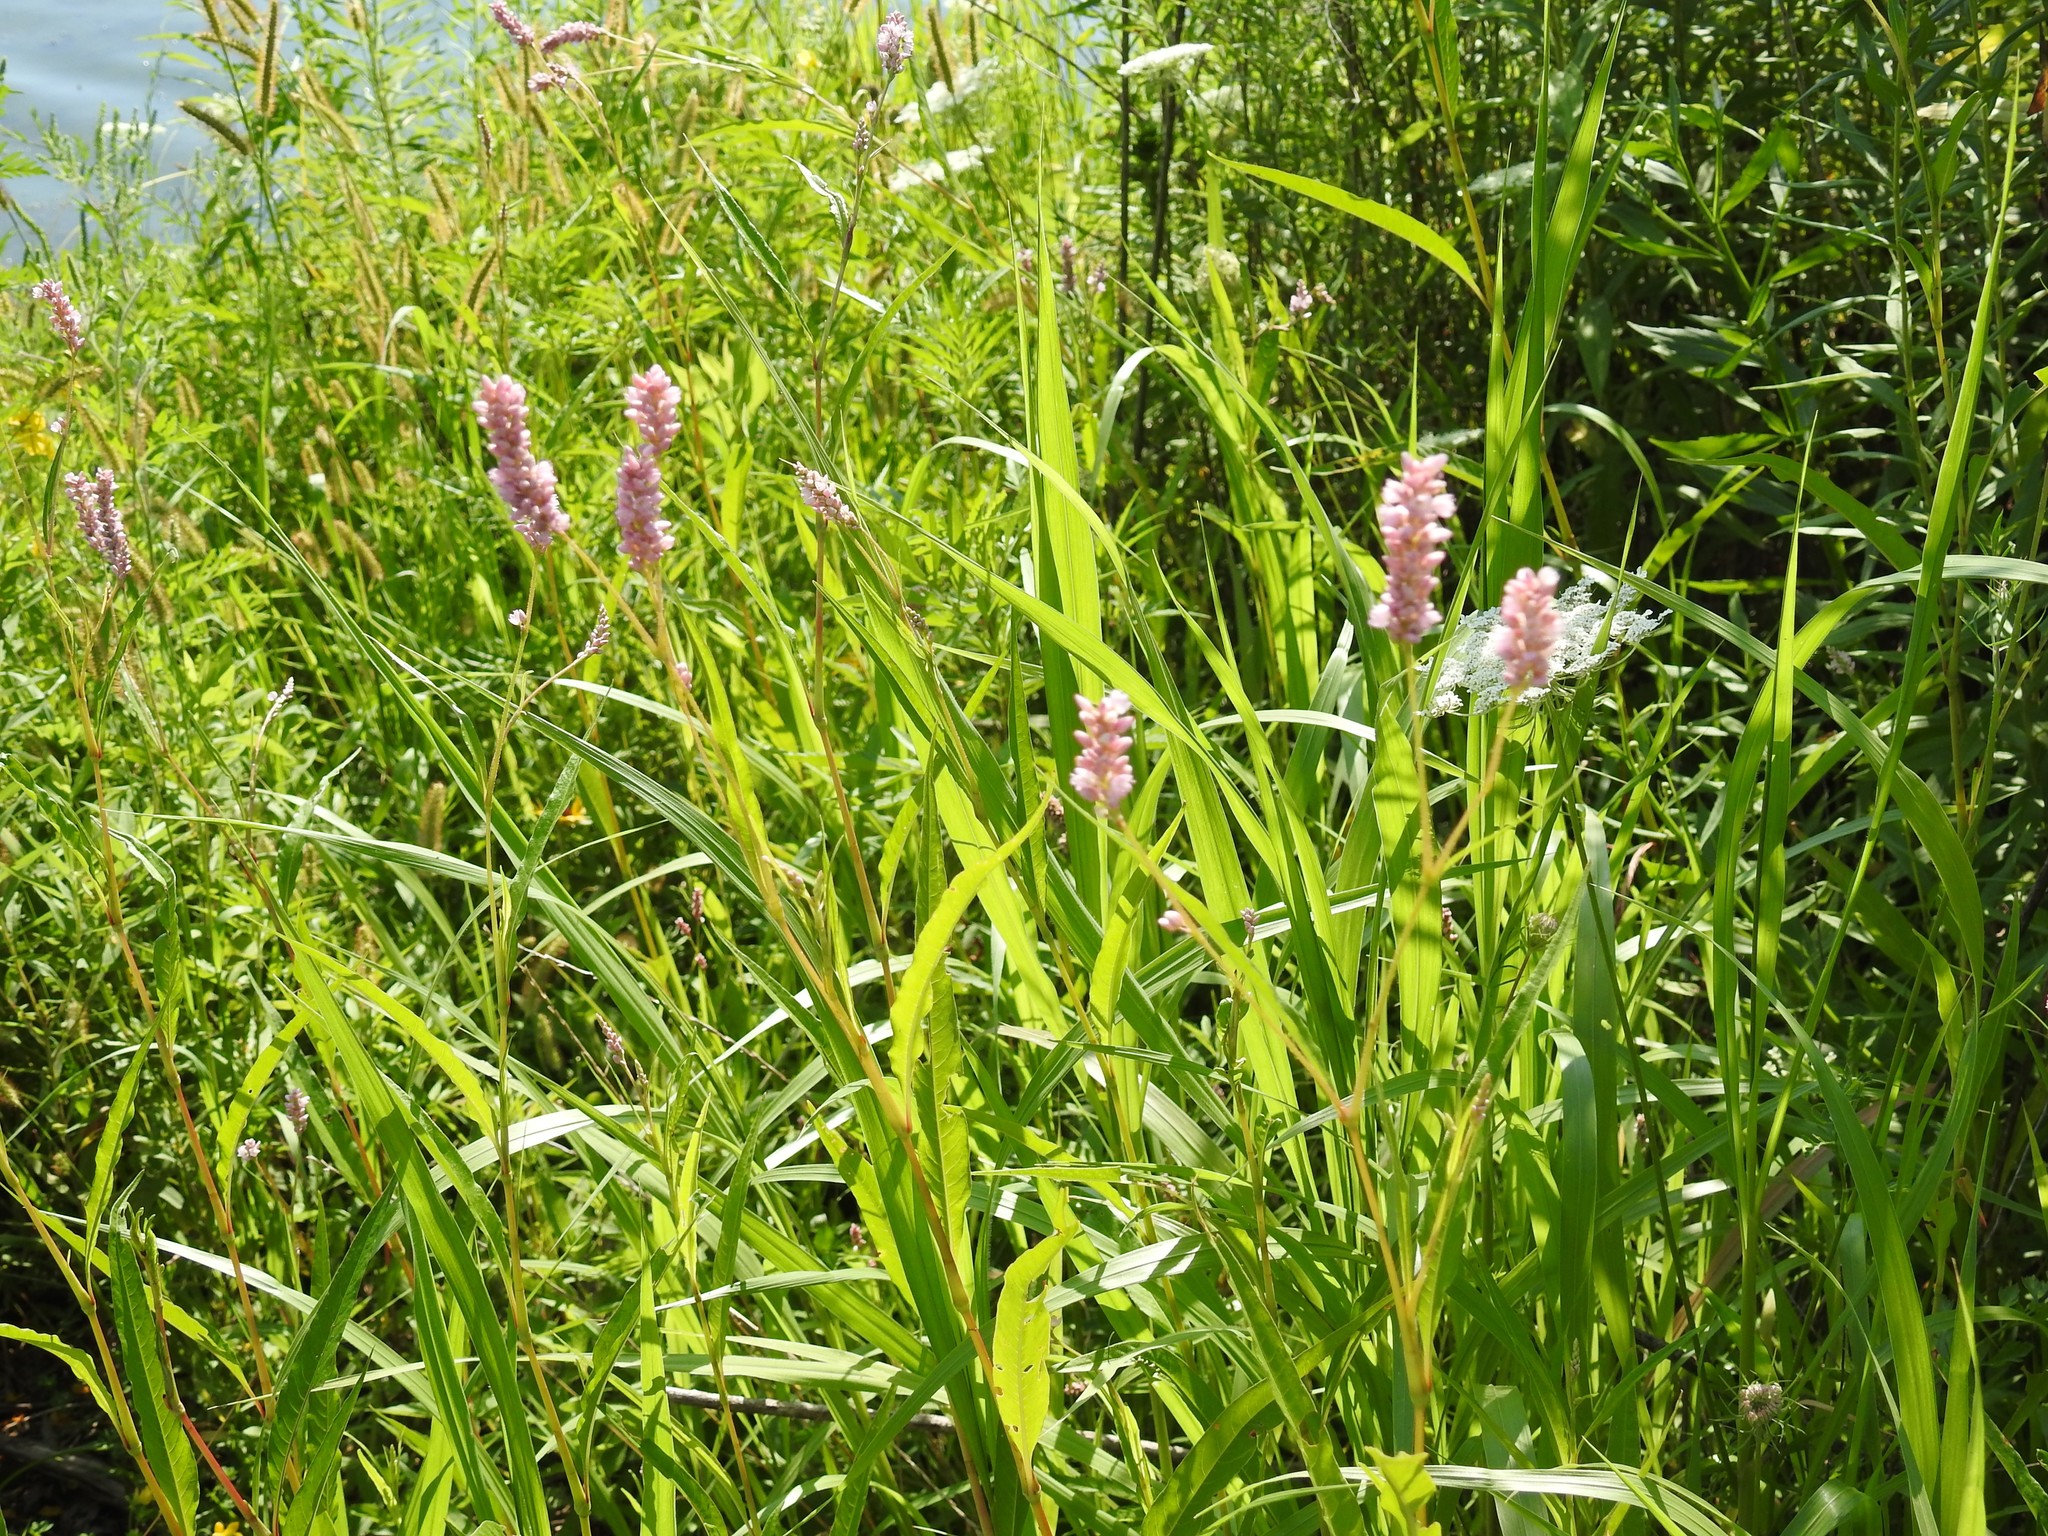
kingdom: Plantae
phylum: Tracheophyta
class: Magnoliopsida
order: Caryophyllales
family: Polygonaceae
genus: Persicaria
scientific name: Persicaria pensylvanica
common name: Pinkweed
